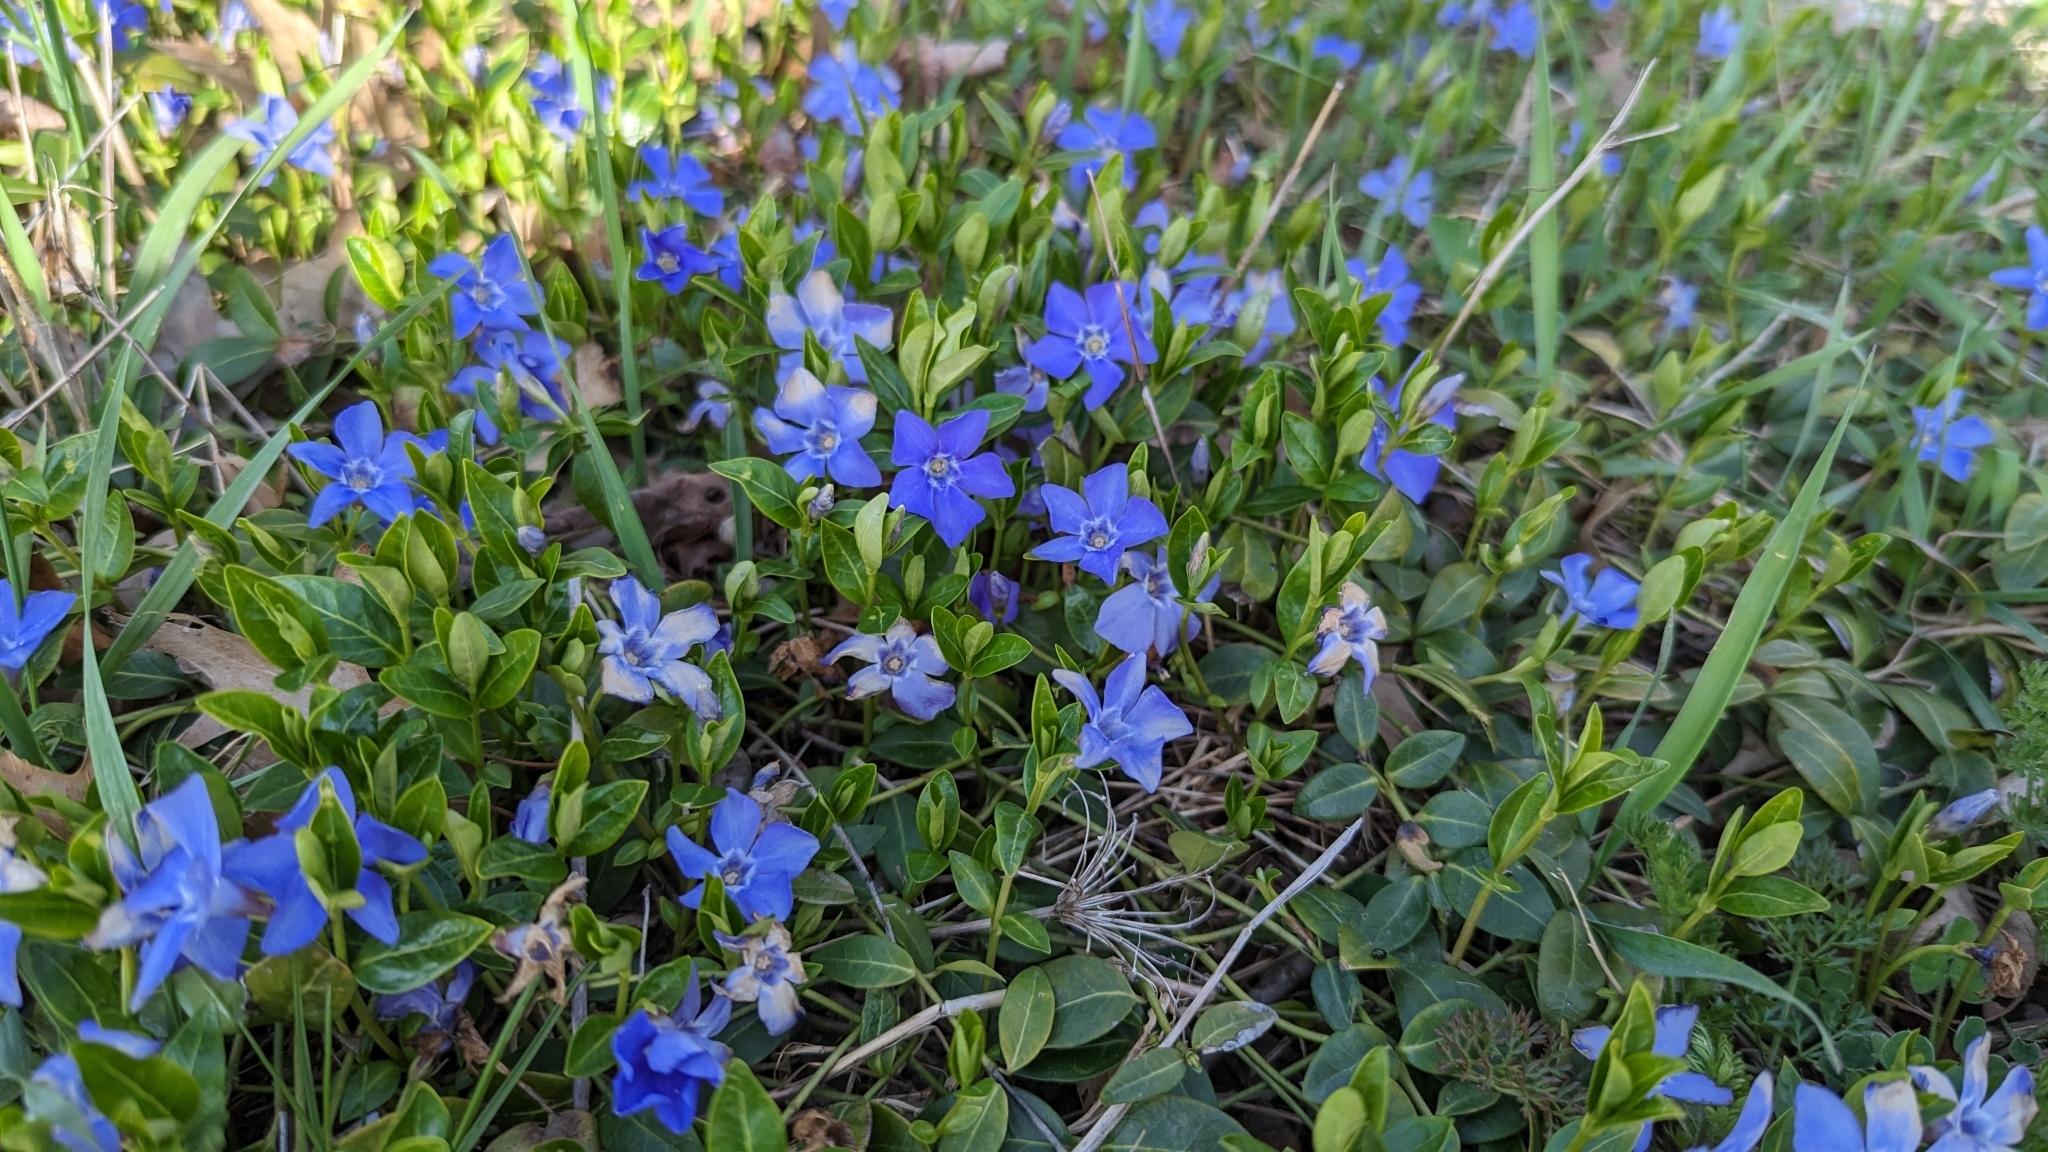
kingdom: Plantae
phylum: Tracheophyta
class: Magnoliopsida
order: Gentianales
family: Apocynaceae
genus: Vinca
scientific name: Vinca minor
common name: Lesser periwinkle
